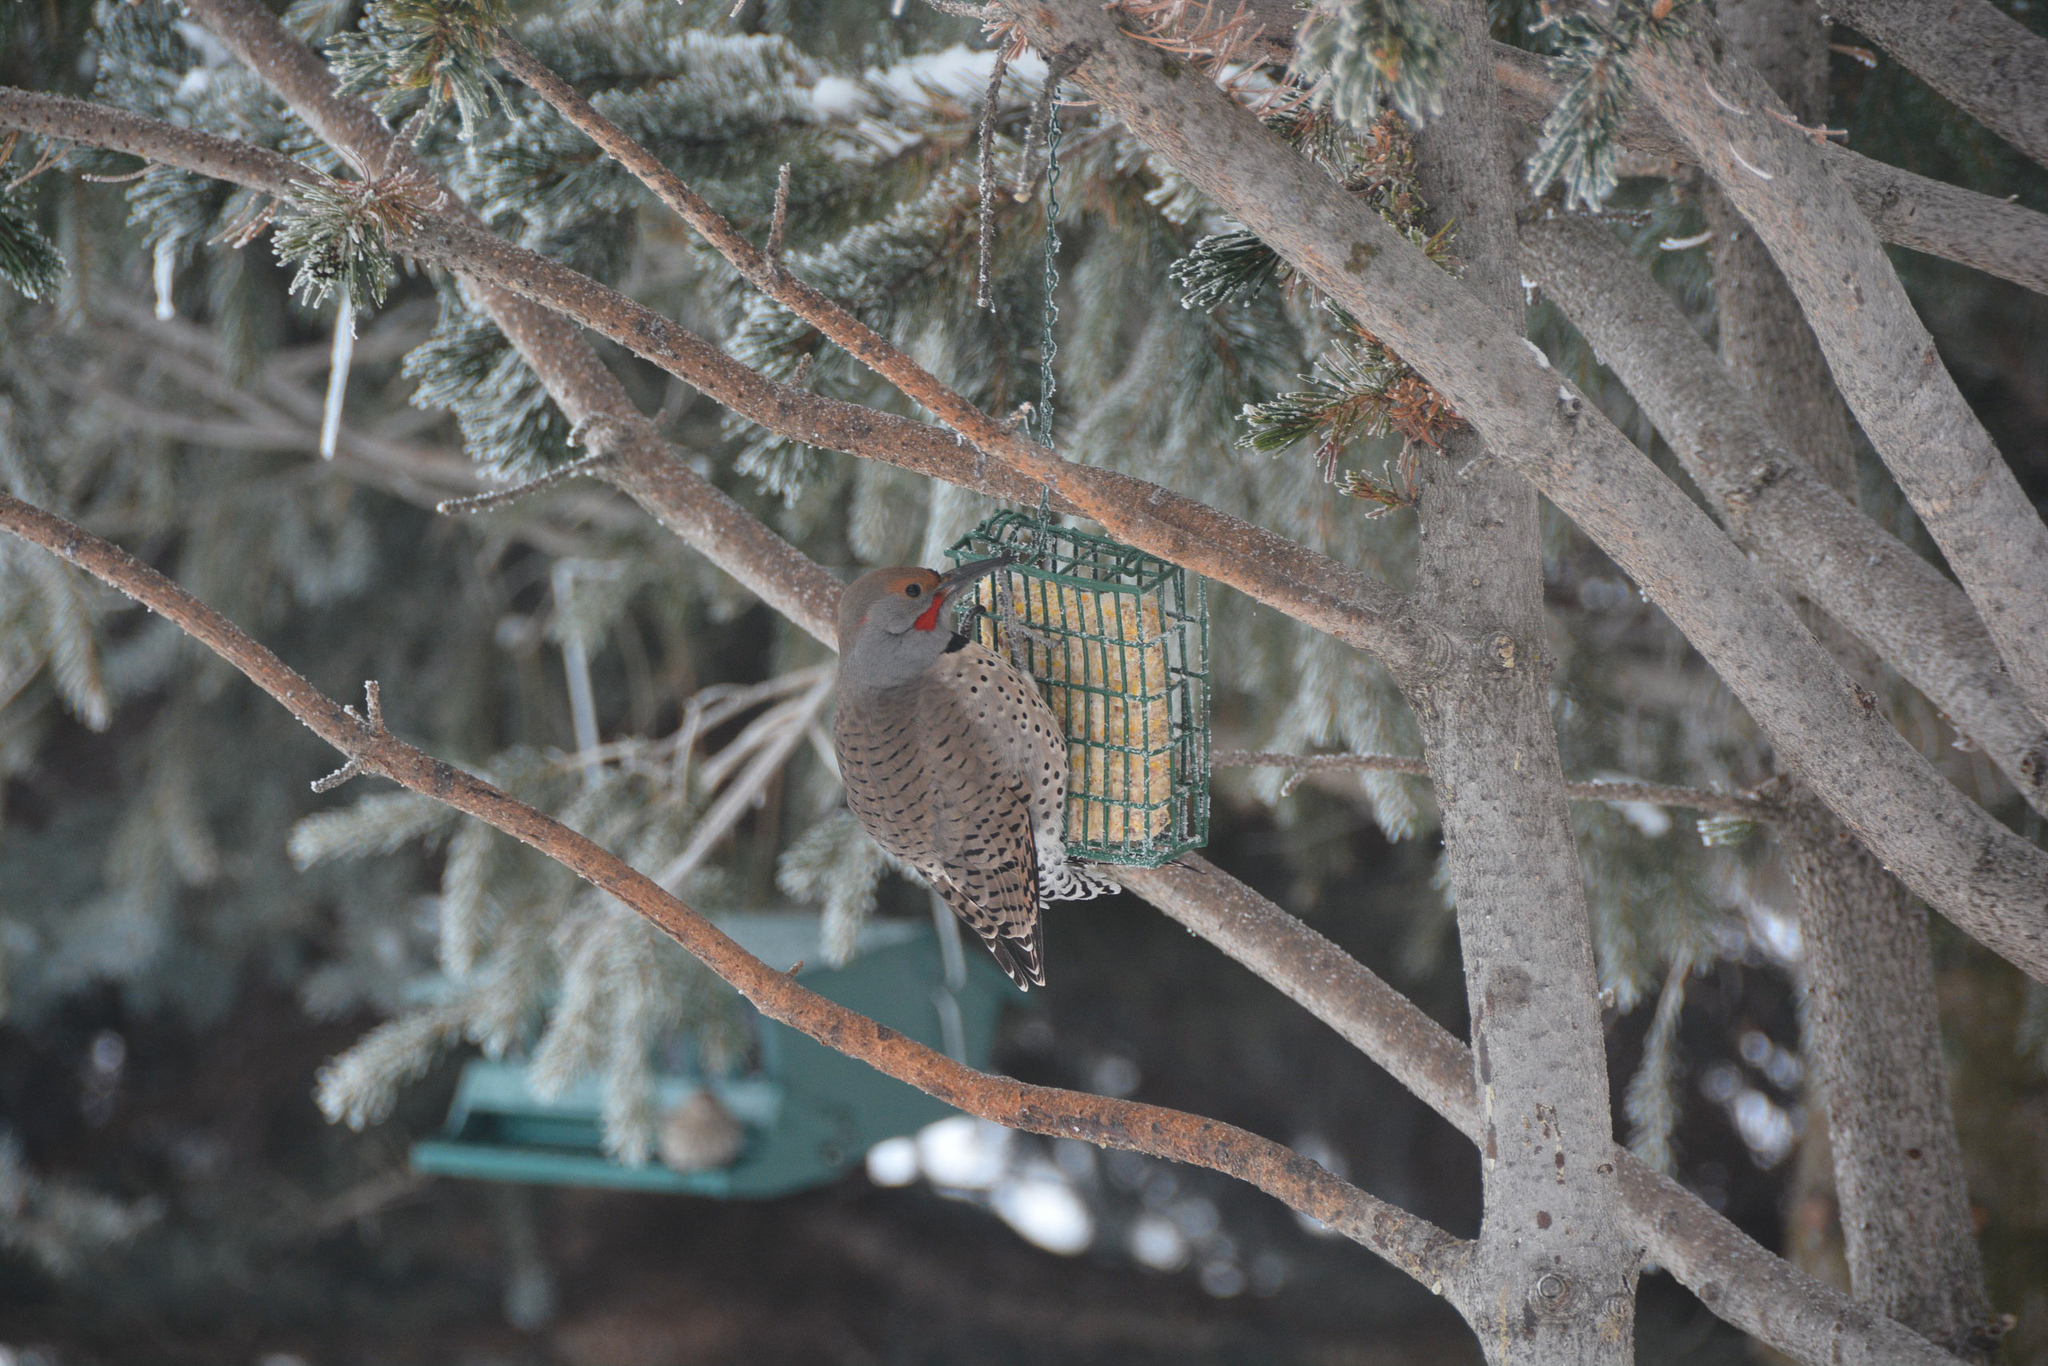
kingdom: Animalia
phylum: Chordata
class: Aves
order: Piciformes
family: Picidae
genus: Colaptes
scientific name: Colaptes auratus
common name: Northern flicker
